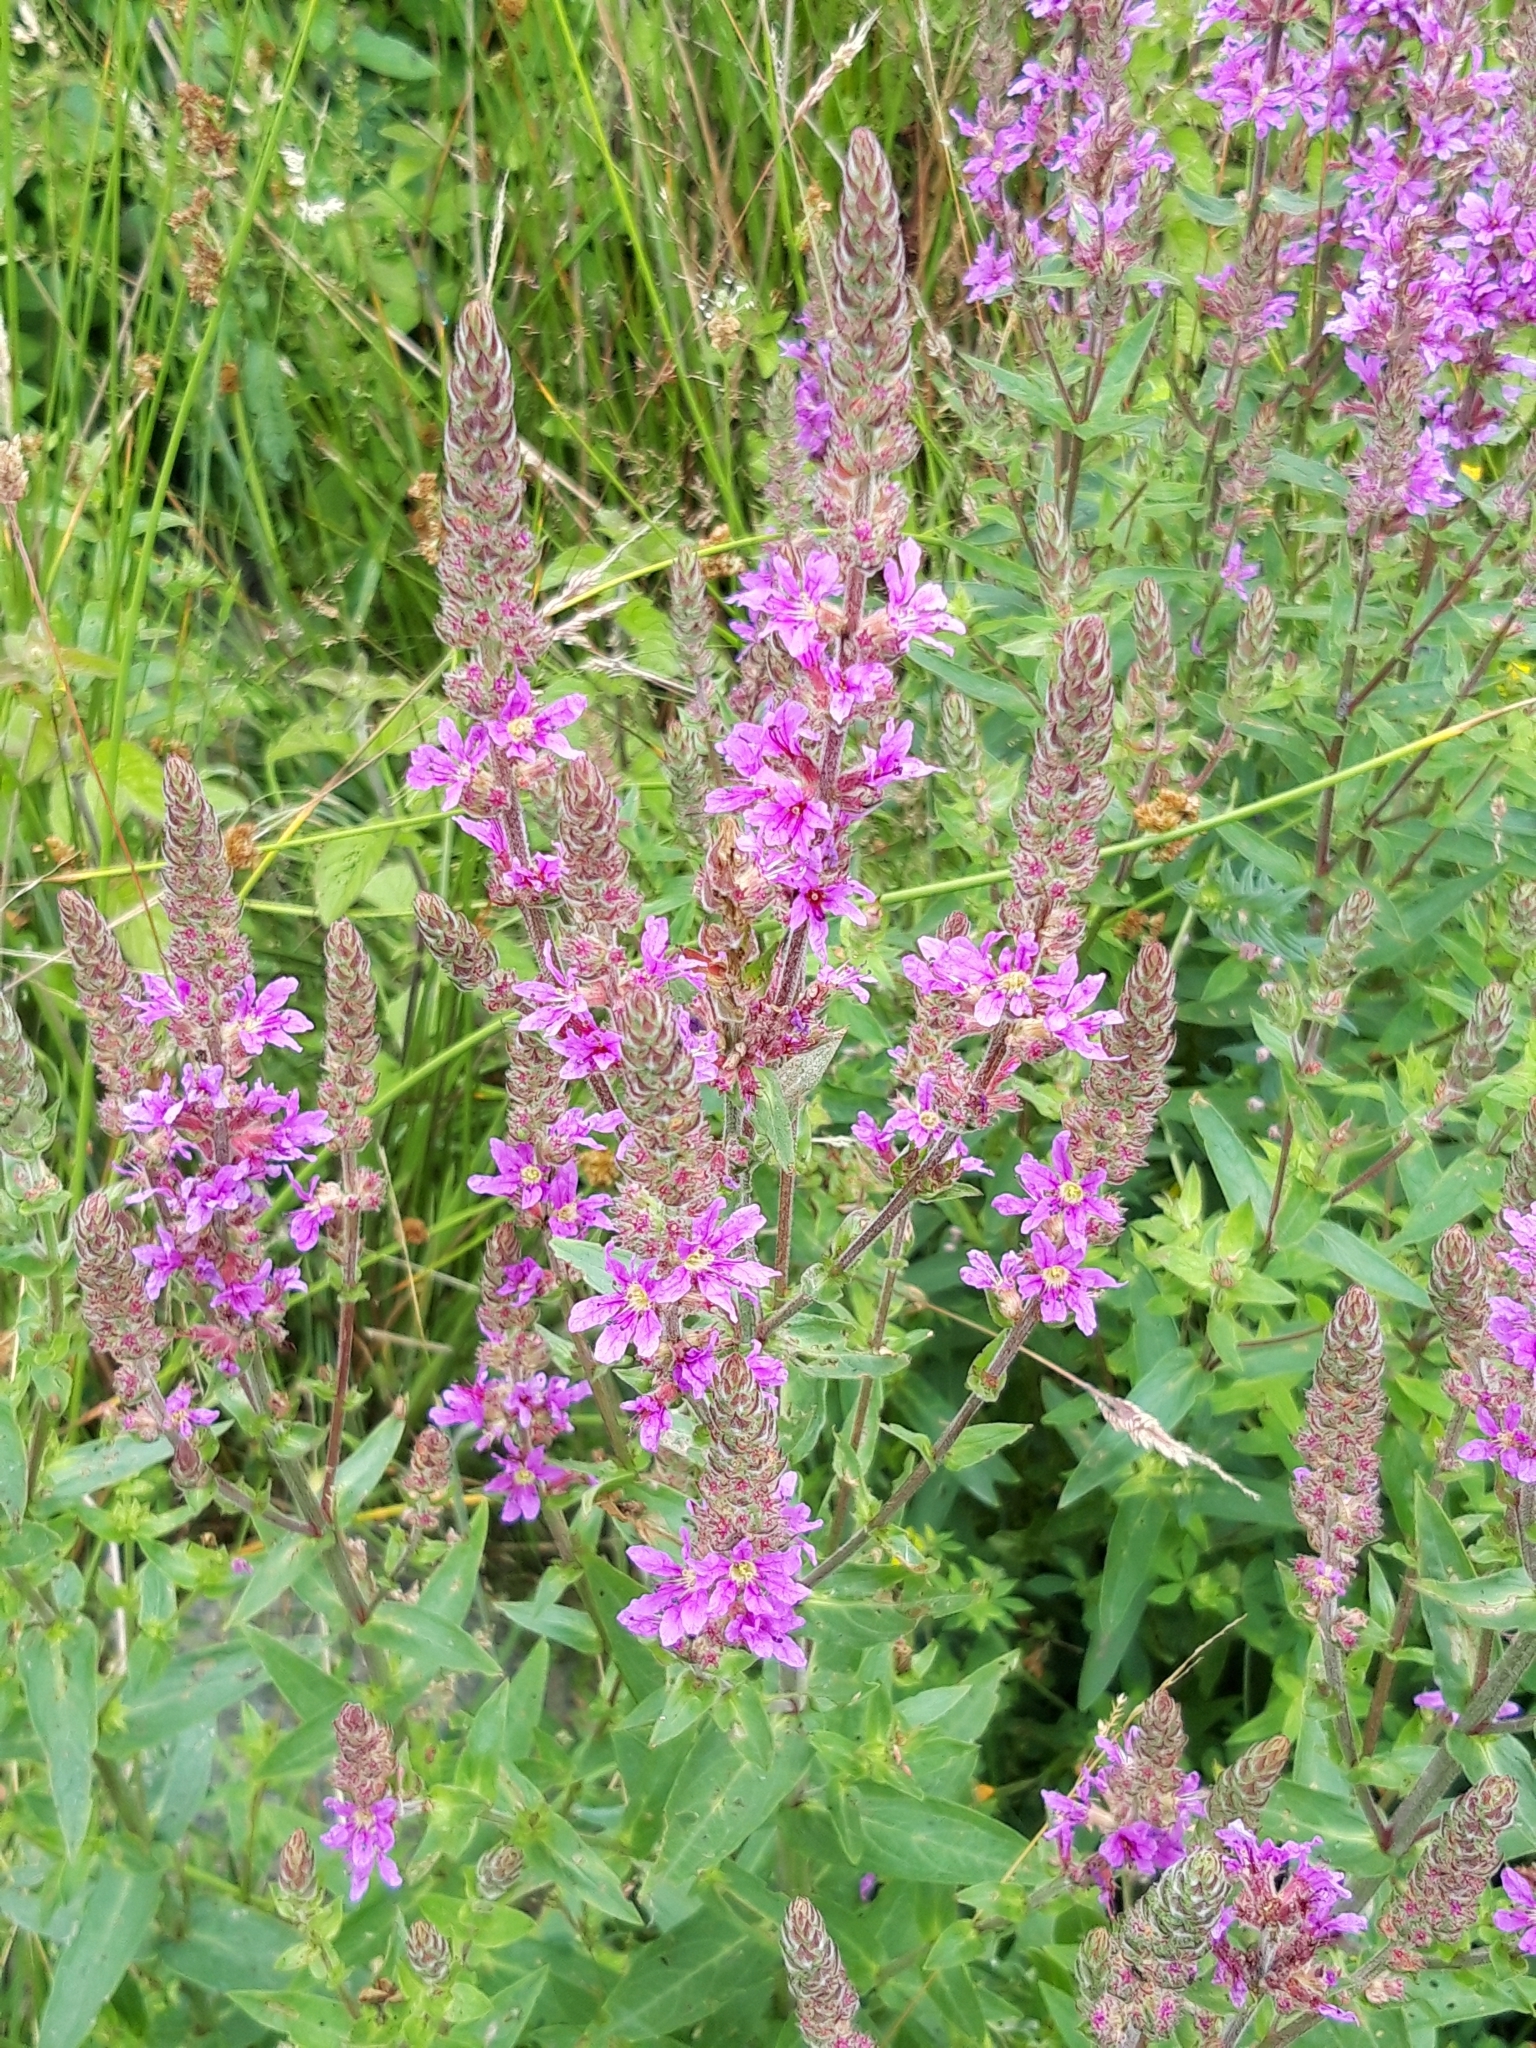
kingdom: Plantae
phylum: Tracheophyta
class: Magnoliopsida
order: Myrtales
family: Lythraceae
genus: Lythrum
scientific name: Lythrum salicaria
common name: Purple loosestrife
